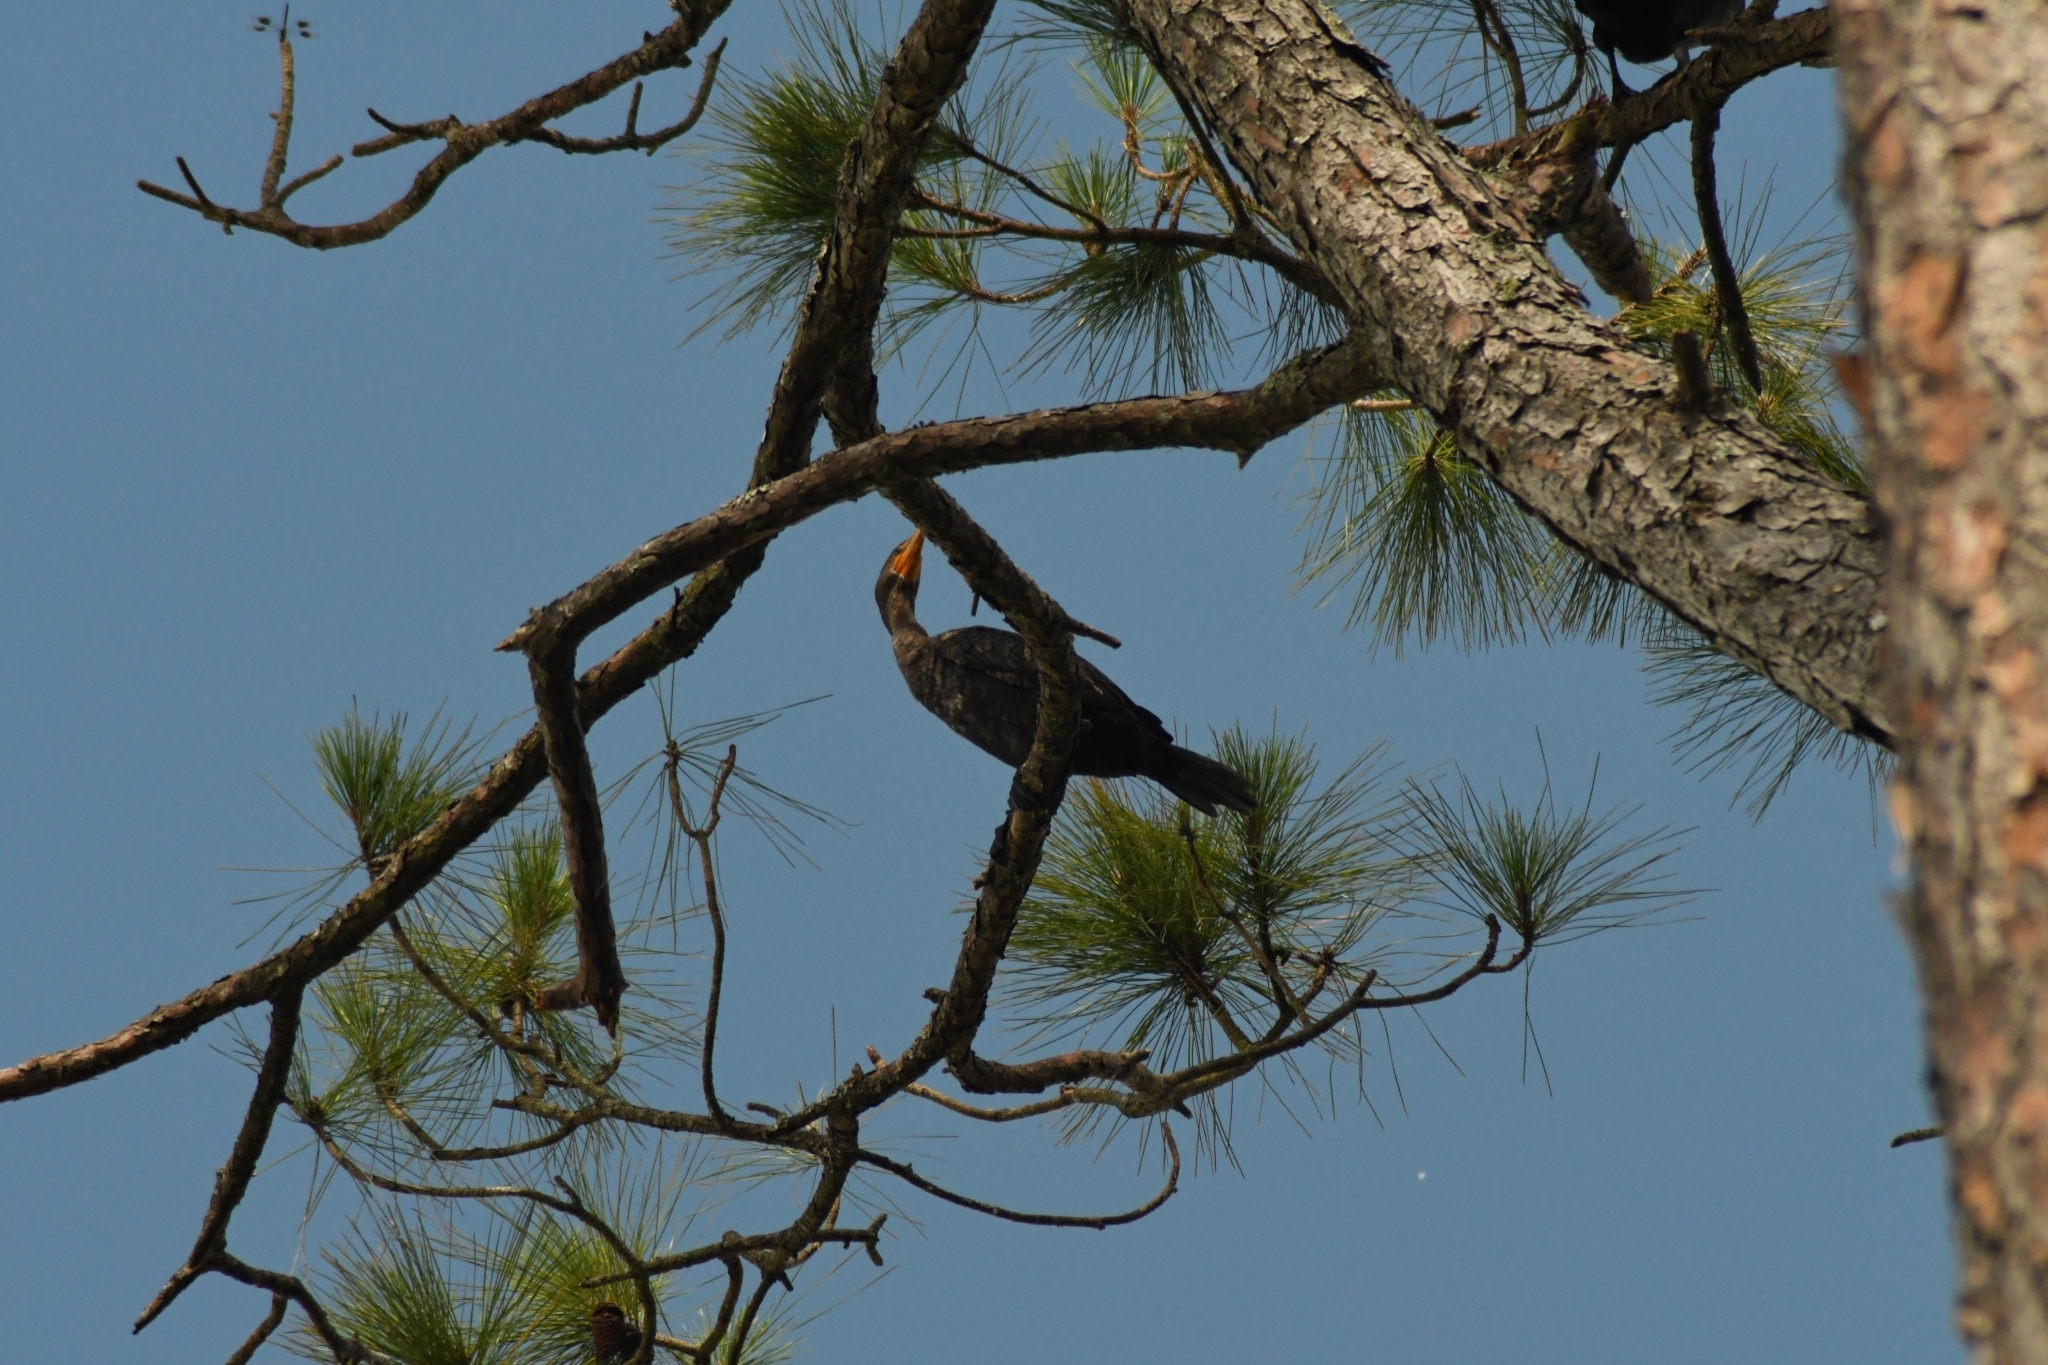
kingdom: Animalia
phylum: Chordata
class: Aves
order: Suliformes
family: Phalacrocoracidae
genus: Phalacrocorax
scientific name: Phalacrocorax auritus
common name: Double-crested cormorant
